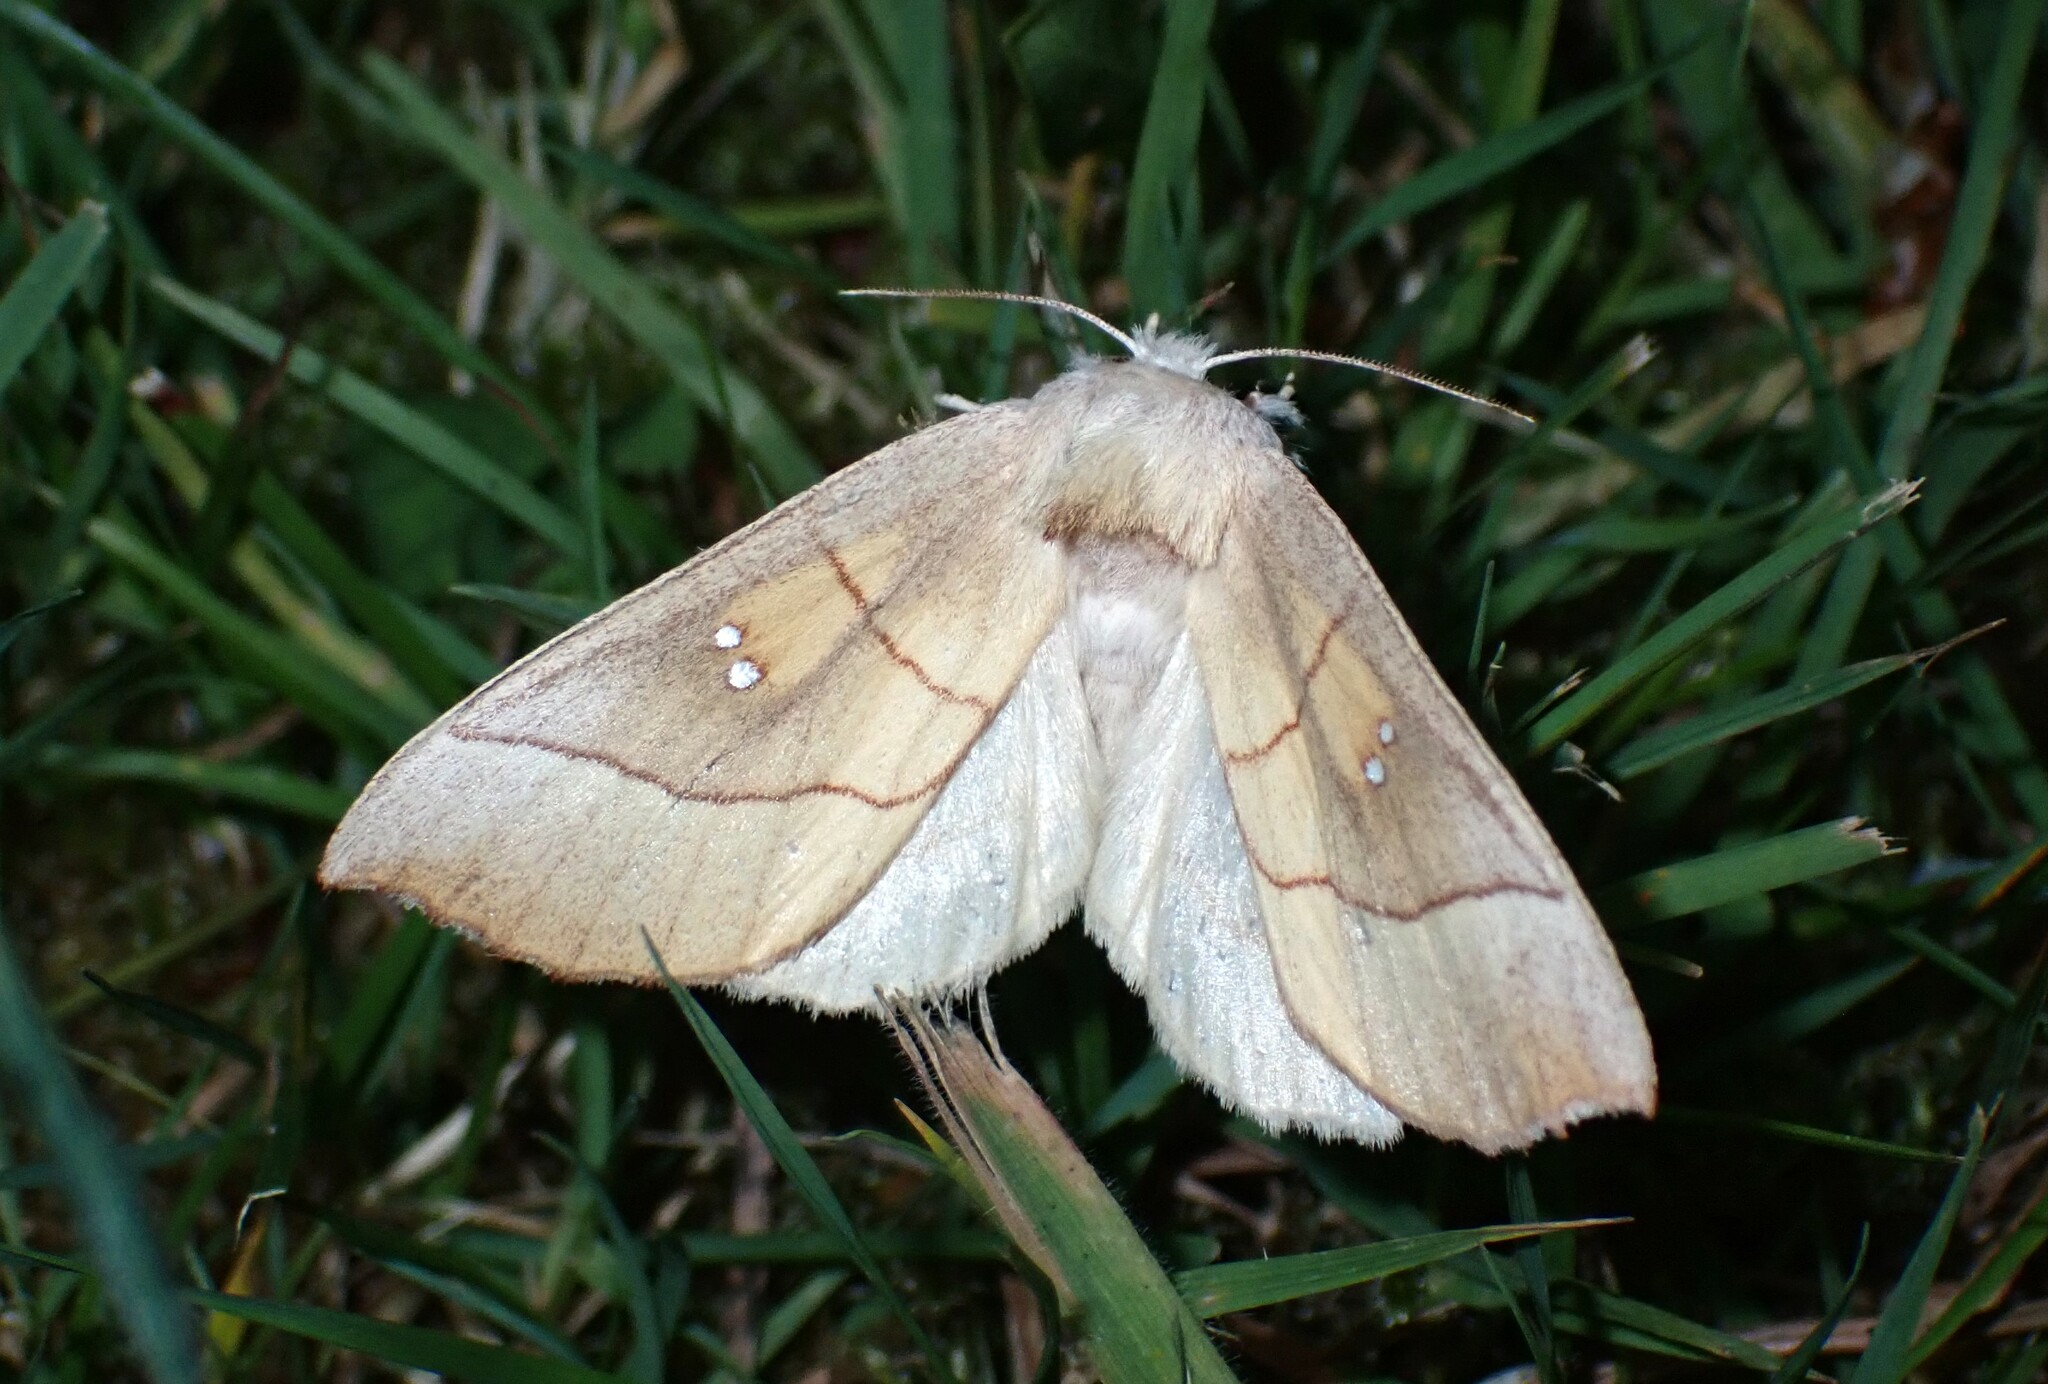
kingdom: Animalia
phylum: Arthropoda
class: Insecta
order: Lepidoptera
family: Notodontidae
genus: Nadata
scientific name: Nadata gibbosa
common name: White-dotted prominent
